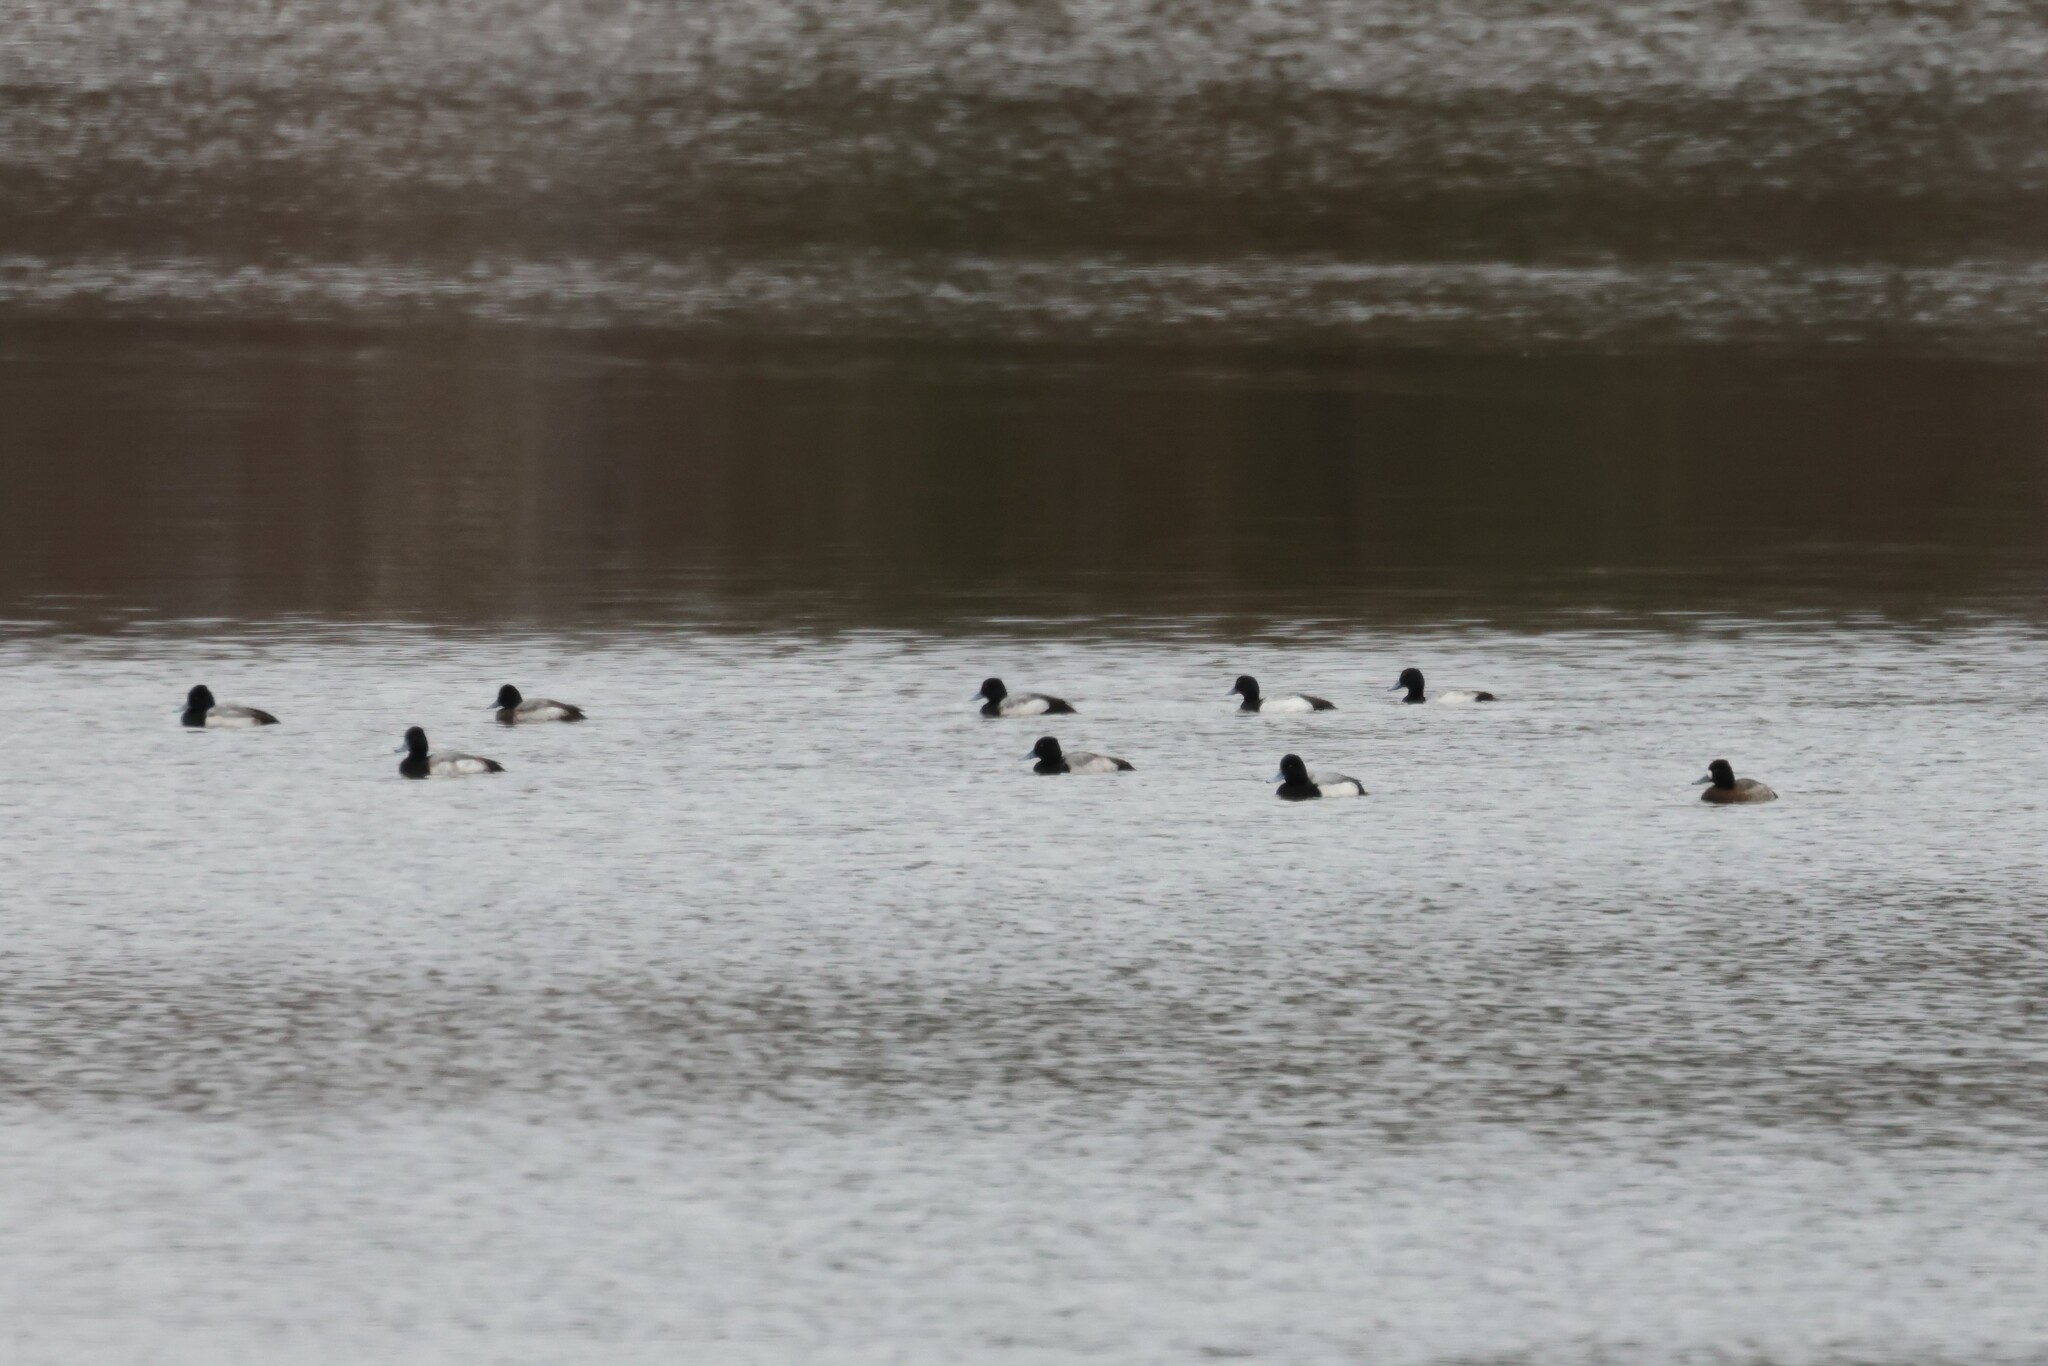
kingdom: Animalia
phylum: Chordata
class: Aves
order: Anseriformes
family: Anatidae
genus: Aythya
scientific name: Aythya affinis
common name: Lesser scaup
